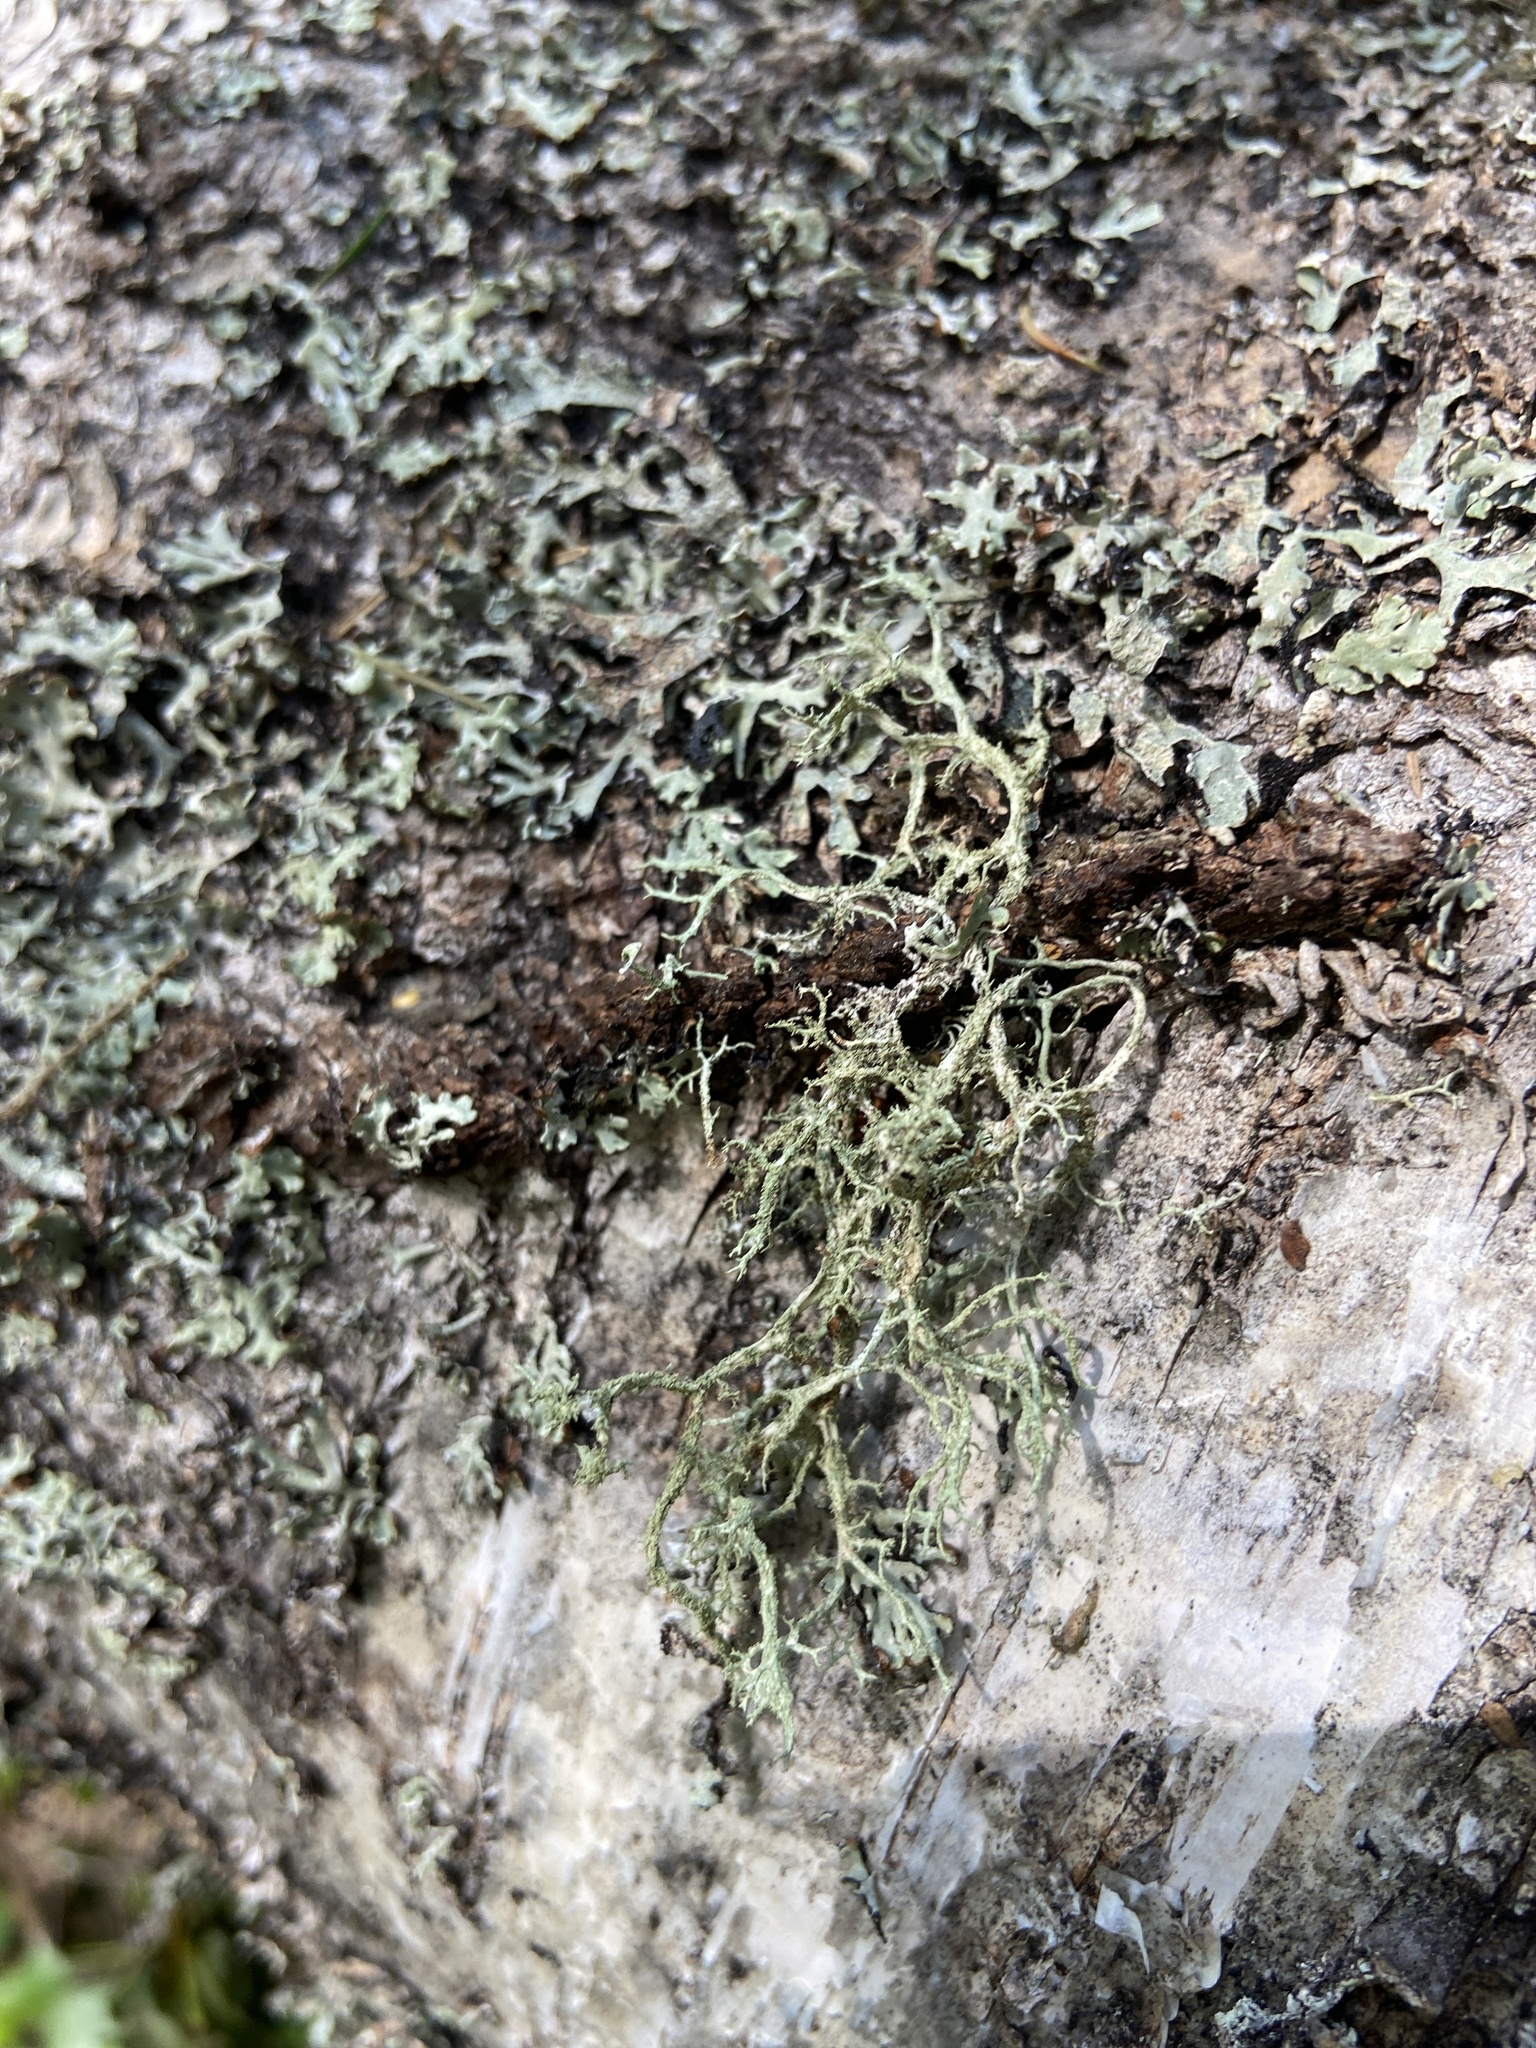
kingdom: Fungi
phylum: Ascomycota
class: Lecanoromycetes
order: Lecanorales
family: Parmeliaceae
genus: Evernia
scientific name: Evernia mesomorpha
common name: Boreal oak moss lichen
